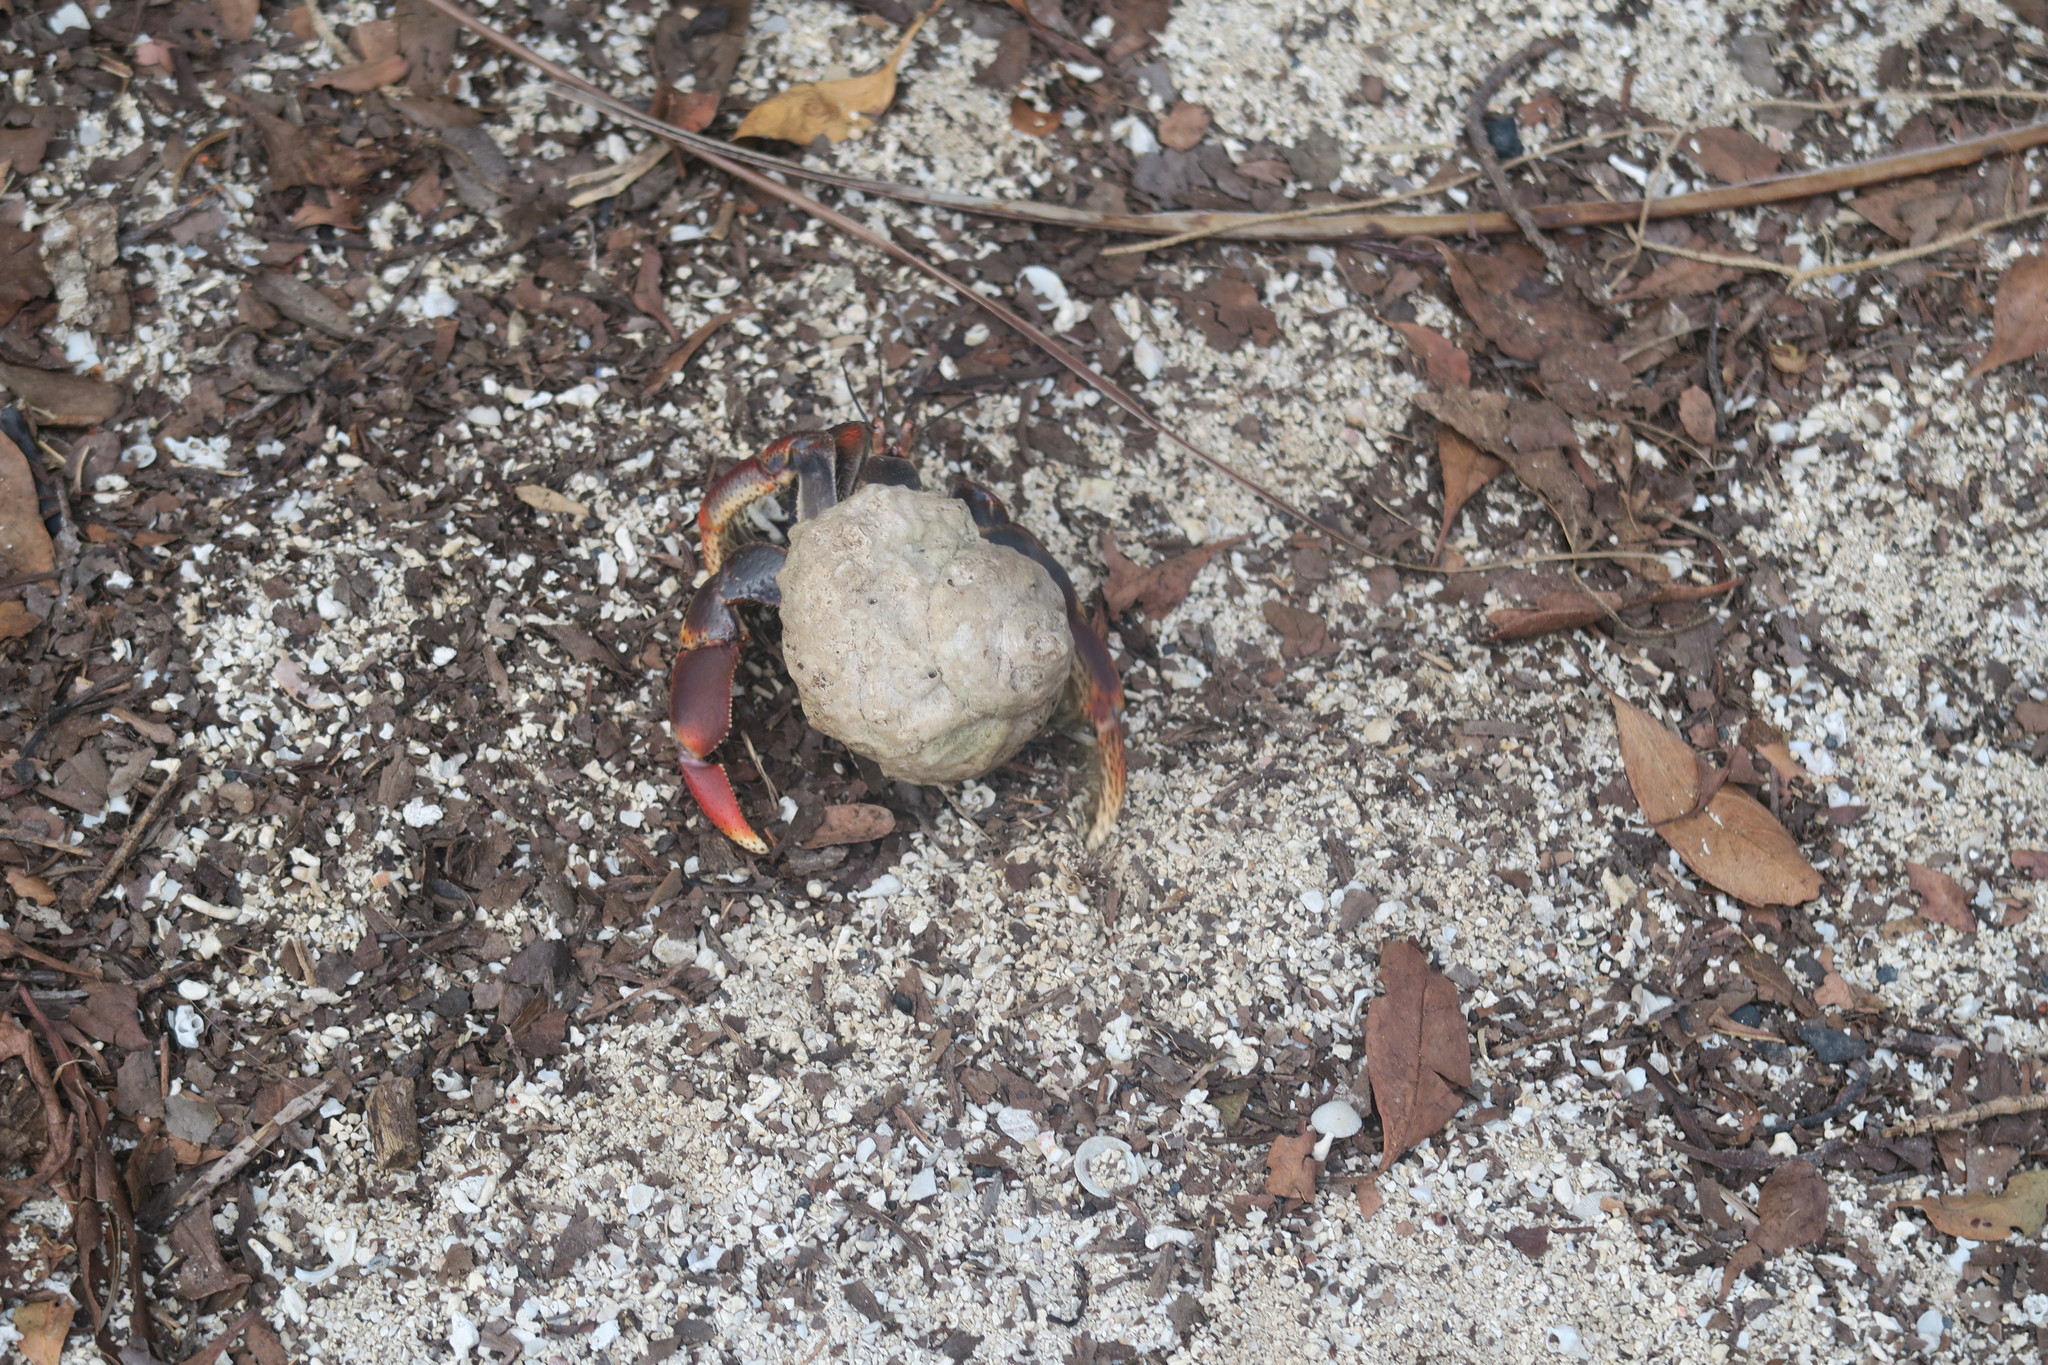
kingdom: Animalia
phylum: Arthropoda
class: Malacostraca
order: Decapoda
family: Coenobitidae
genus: Coenobita
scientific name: Coenobita clypeatus
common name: Caribbean hermit crab
